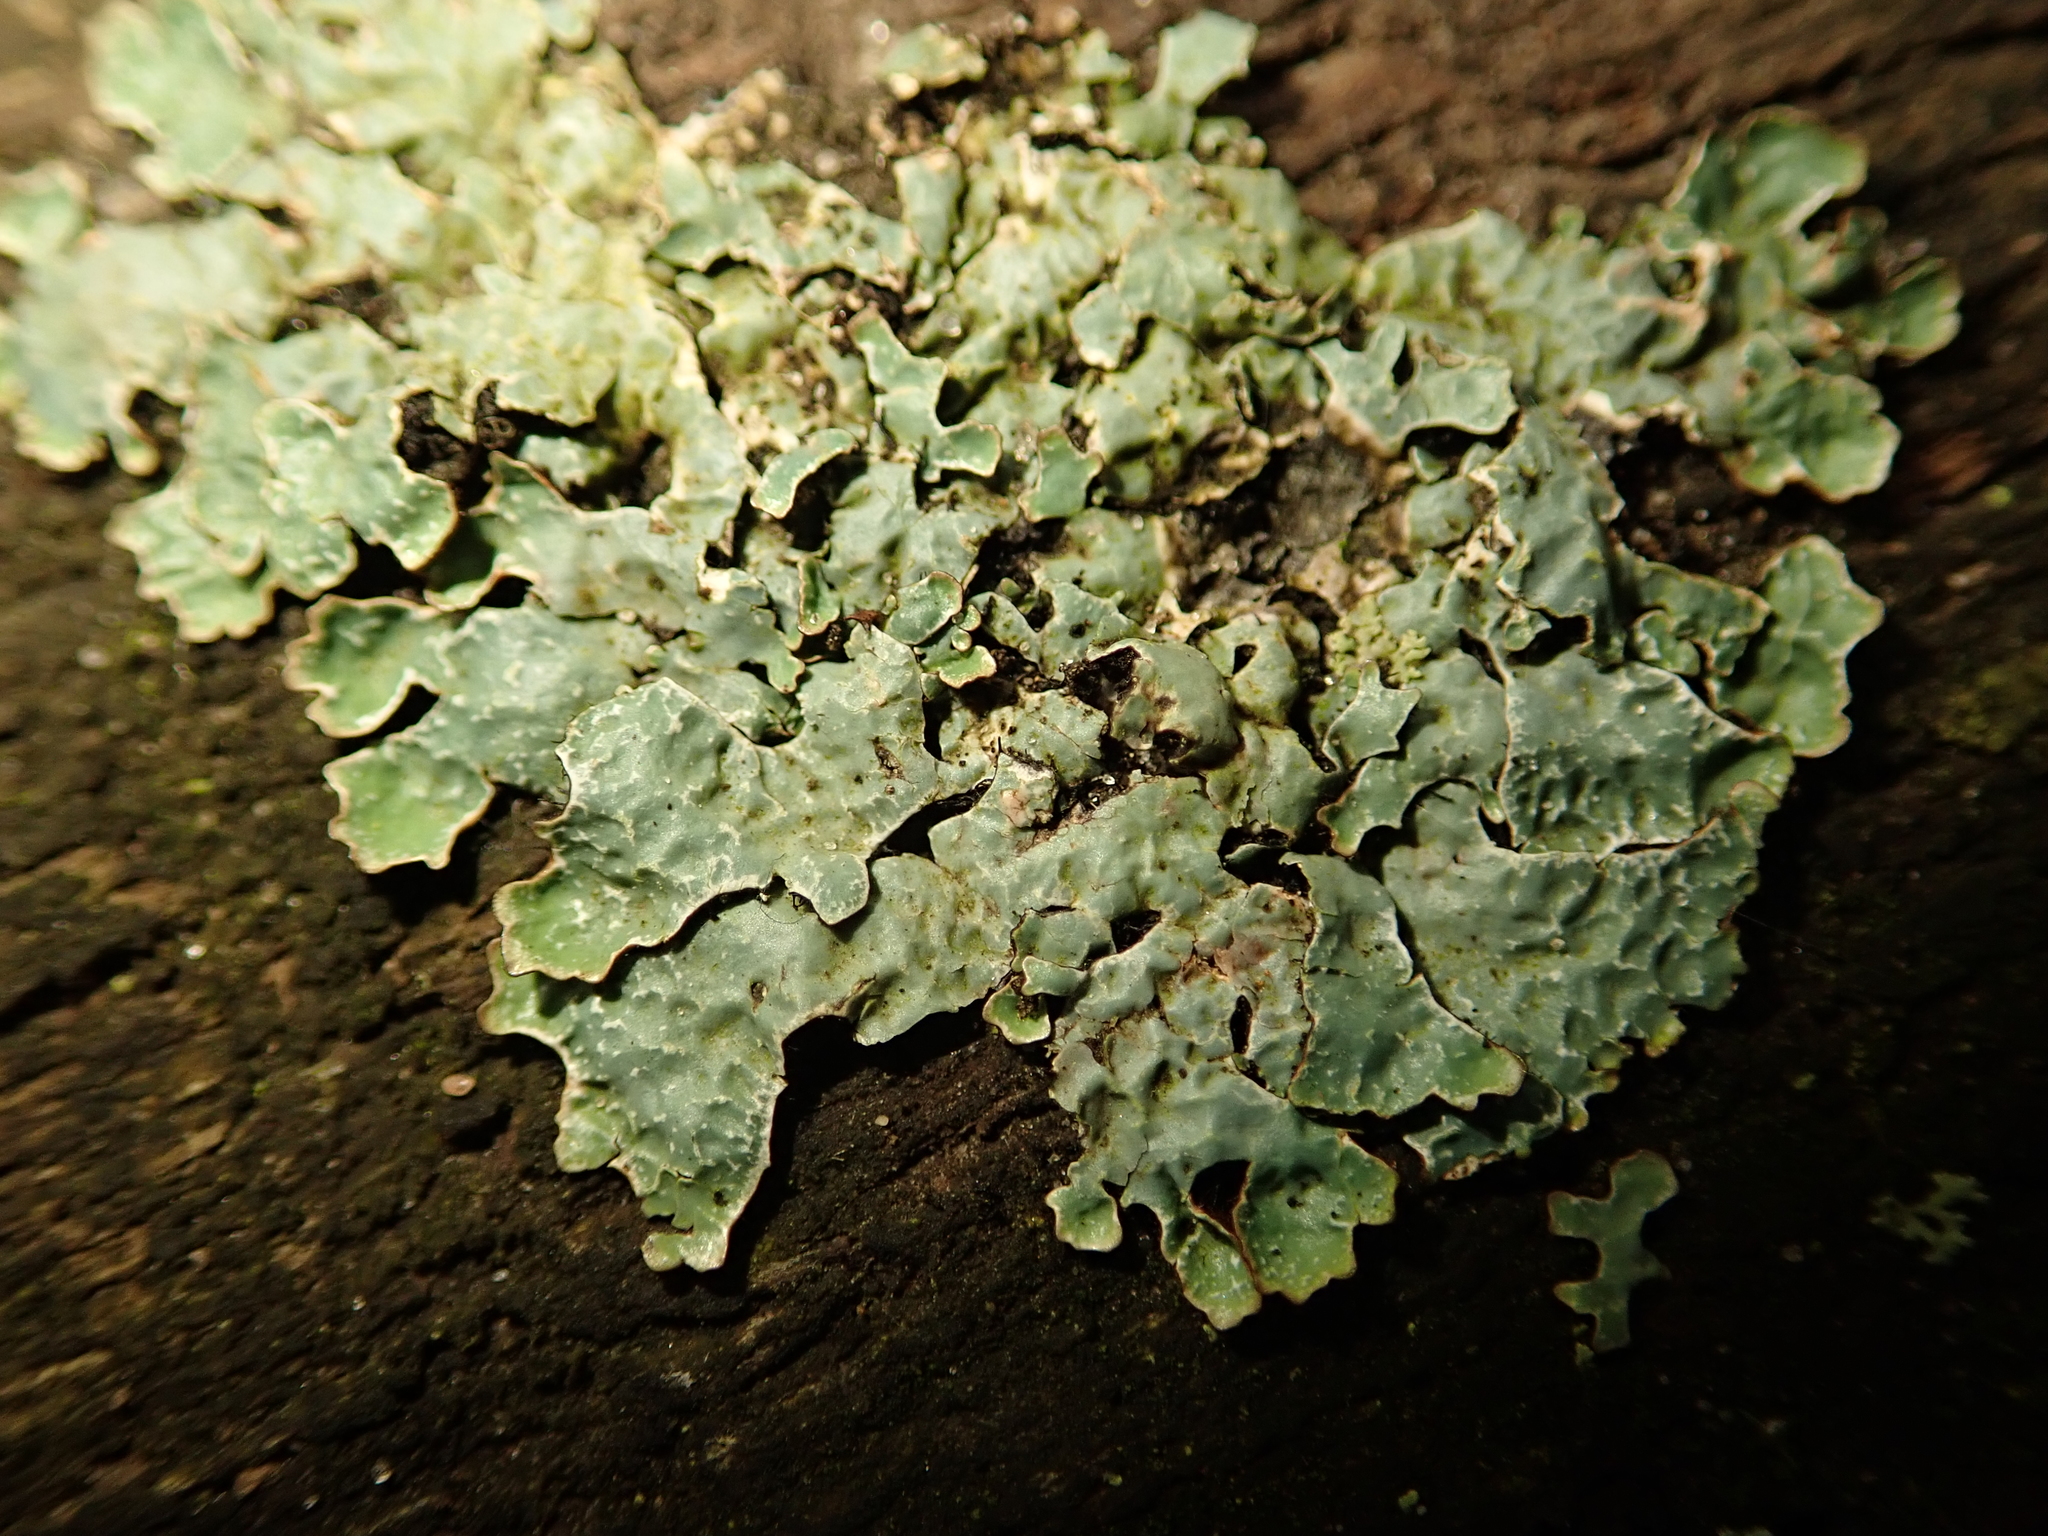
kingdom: Fungi
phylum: Ascomycota
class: Lecanoromycetes
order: Lecanorales
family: Parmeliaceae
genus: Parmelia
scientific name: Parmelia sulcata
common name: Netted shield lichen
